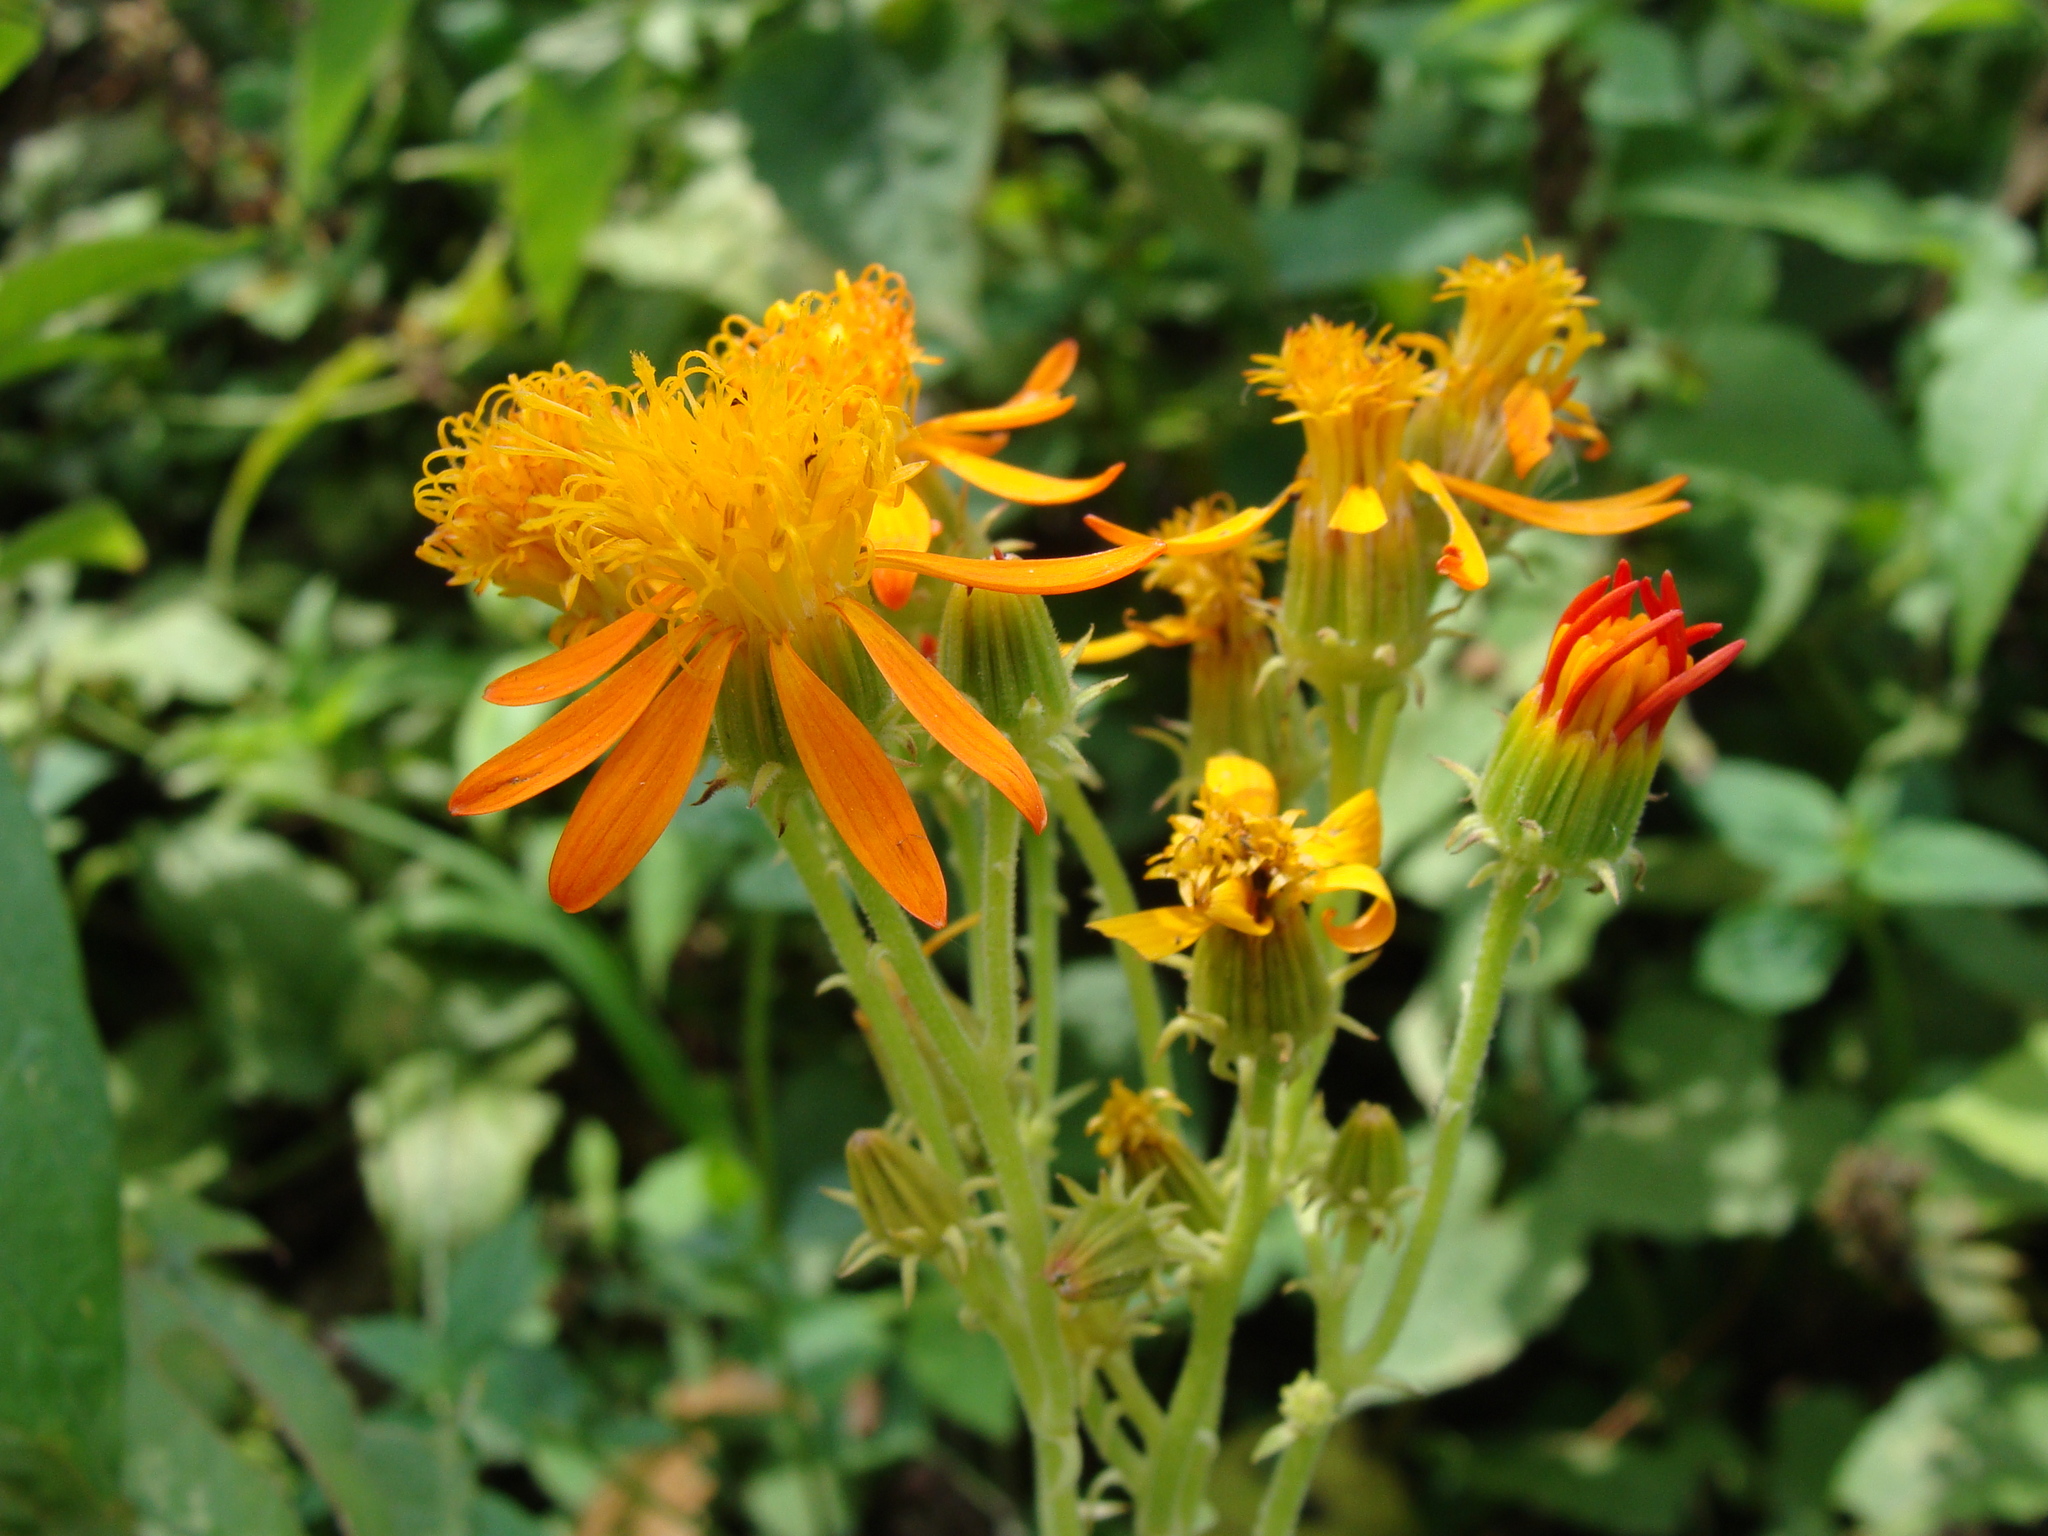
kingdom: Plantae
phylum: Tracheophyta
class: Magnoliopsida
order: Asterales
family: Asteraceae
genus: Pseudogynoxys
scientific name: Pseudogynoxys haenkei
